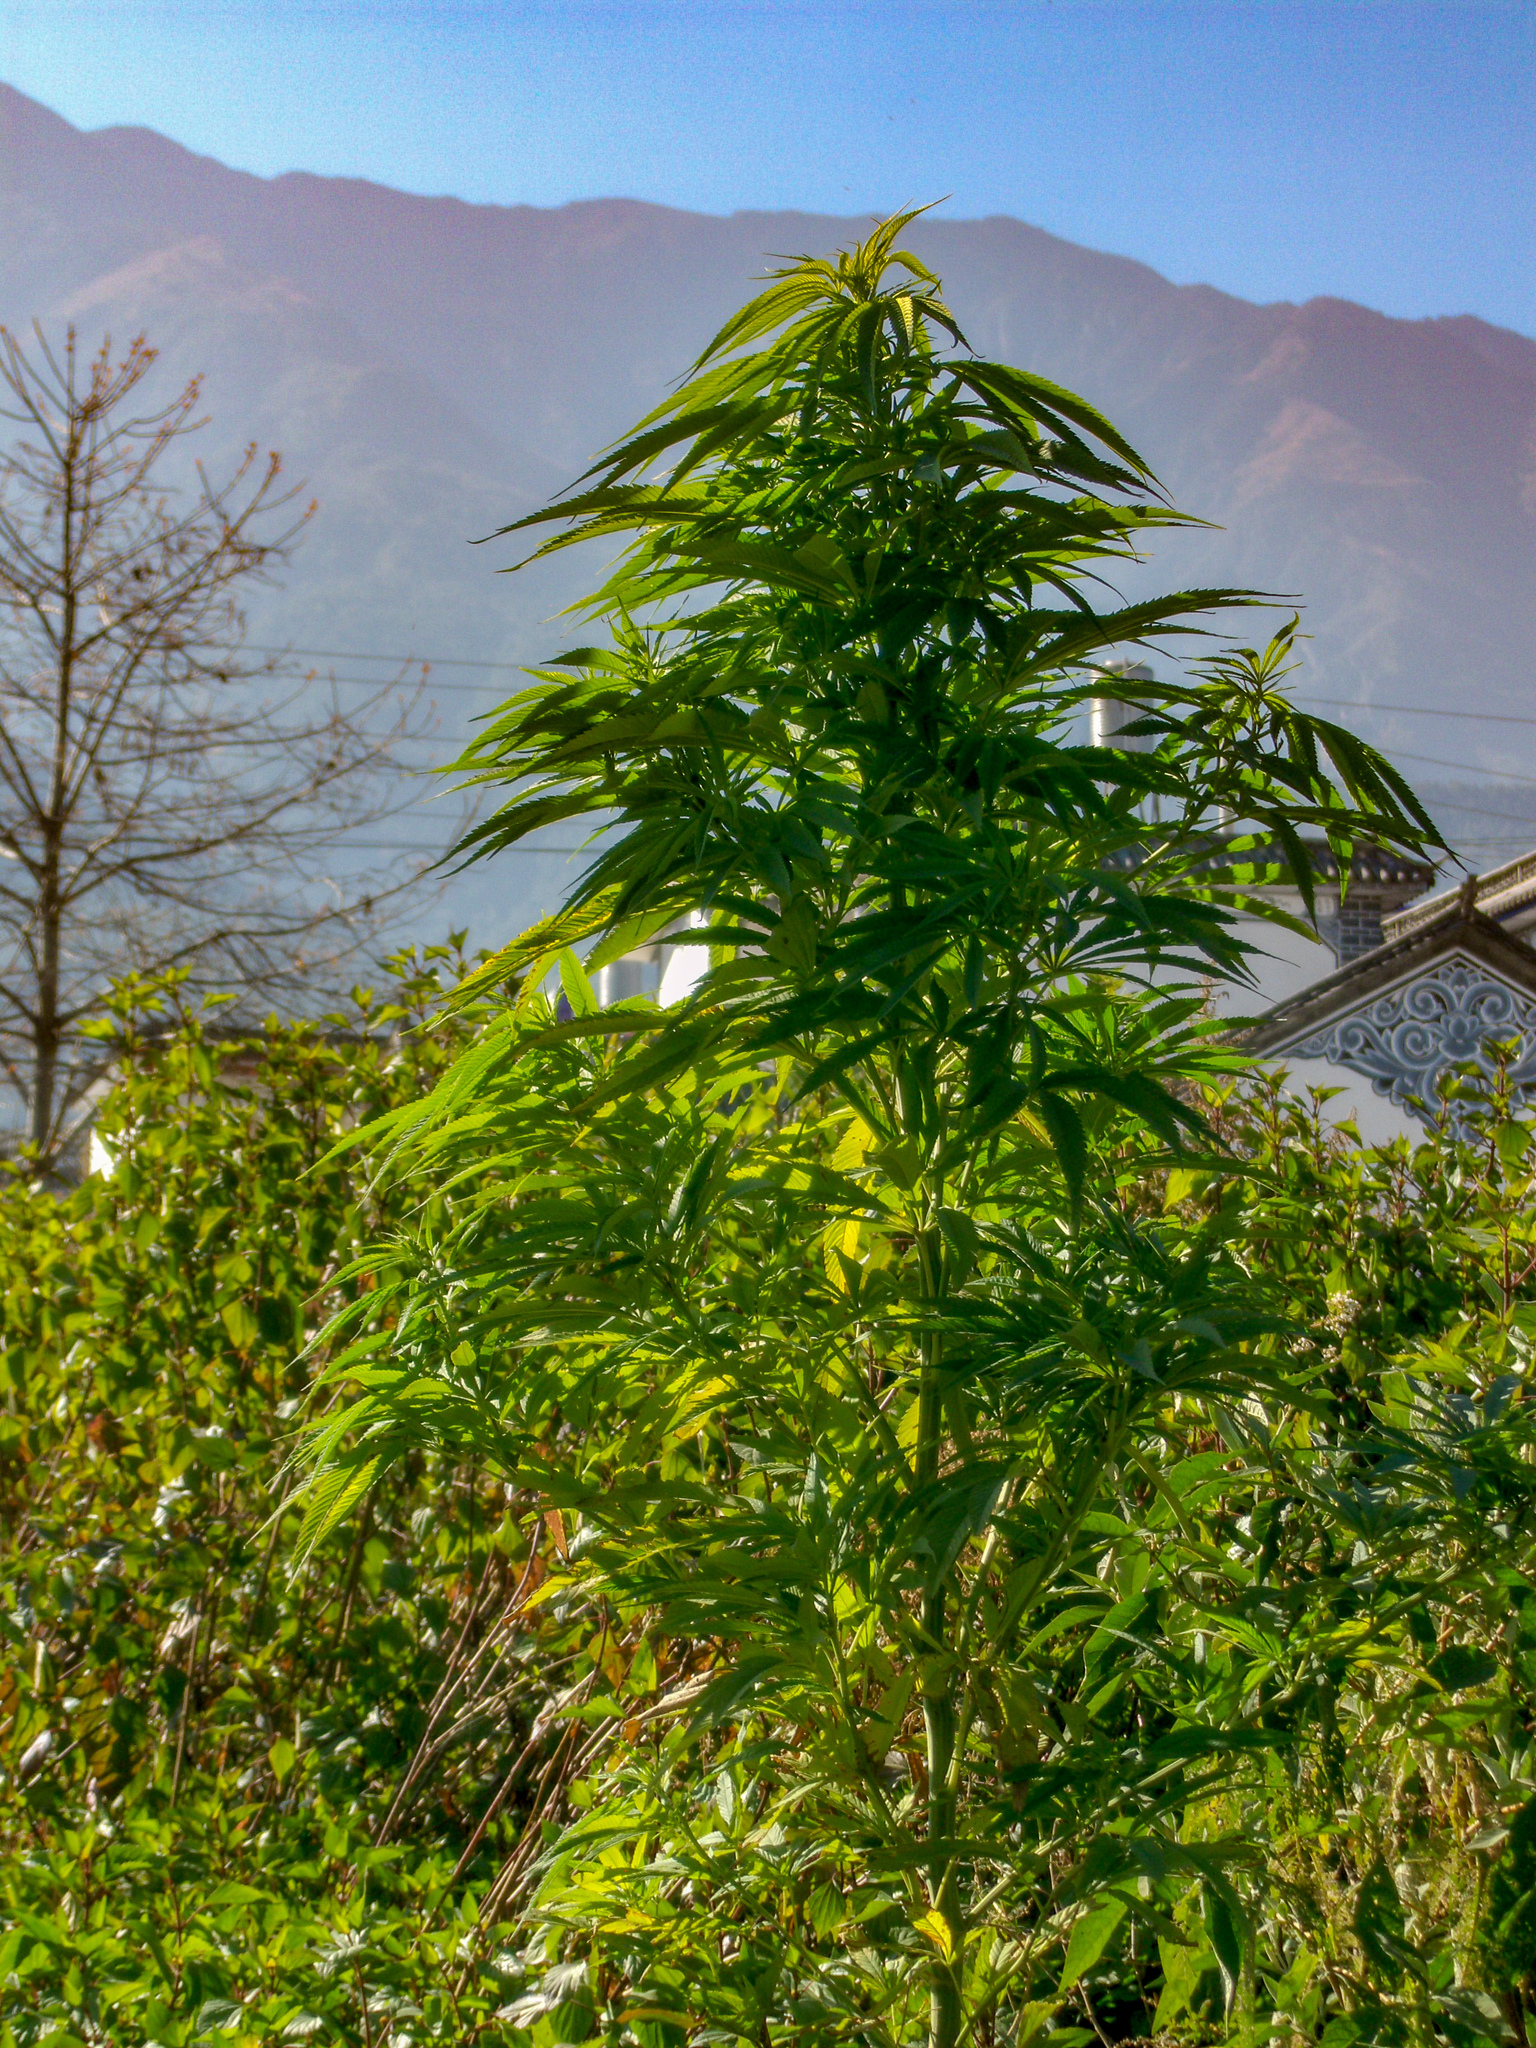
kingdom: Plantae
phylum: Tracheophyta
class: Magnoliopsida
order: Rosales
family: Cannabaceae
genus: Cannabis
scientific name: Cannabis sativa
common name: Hemp
